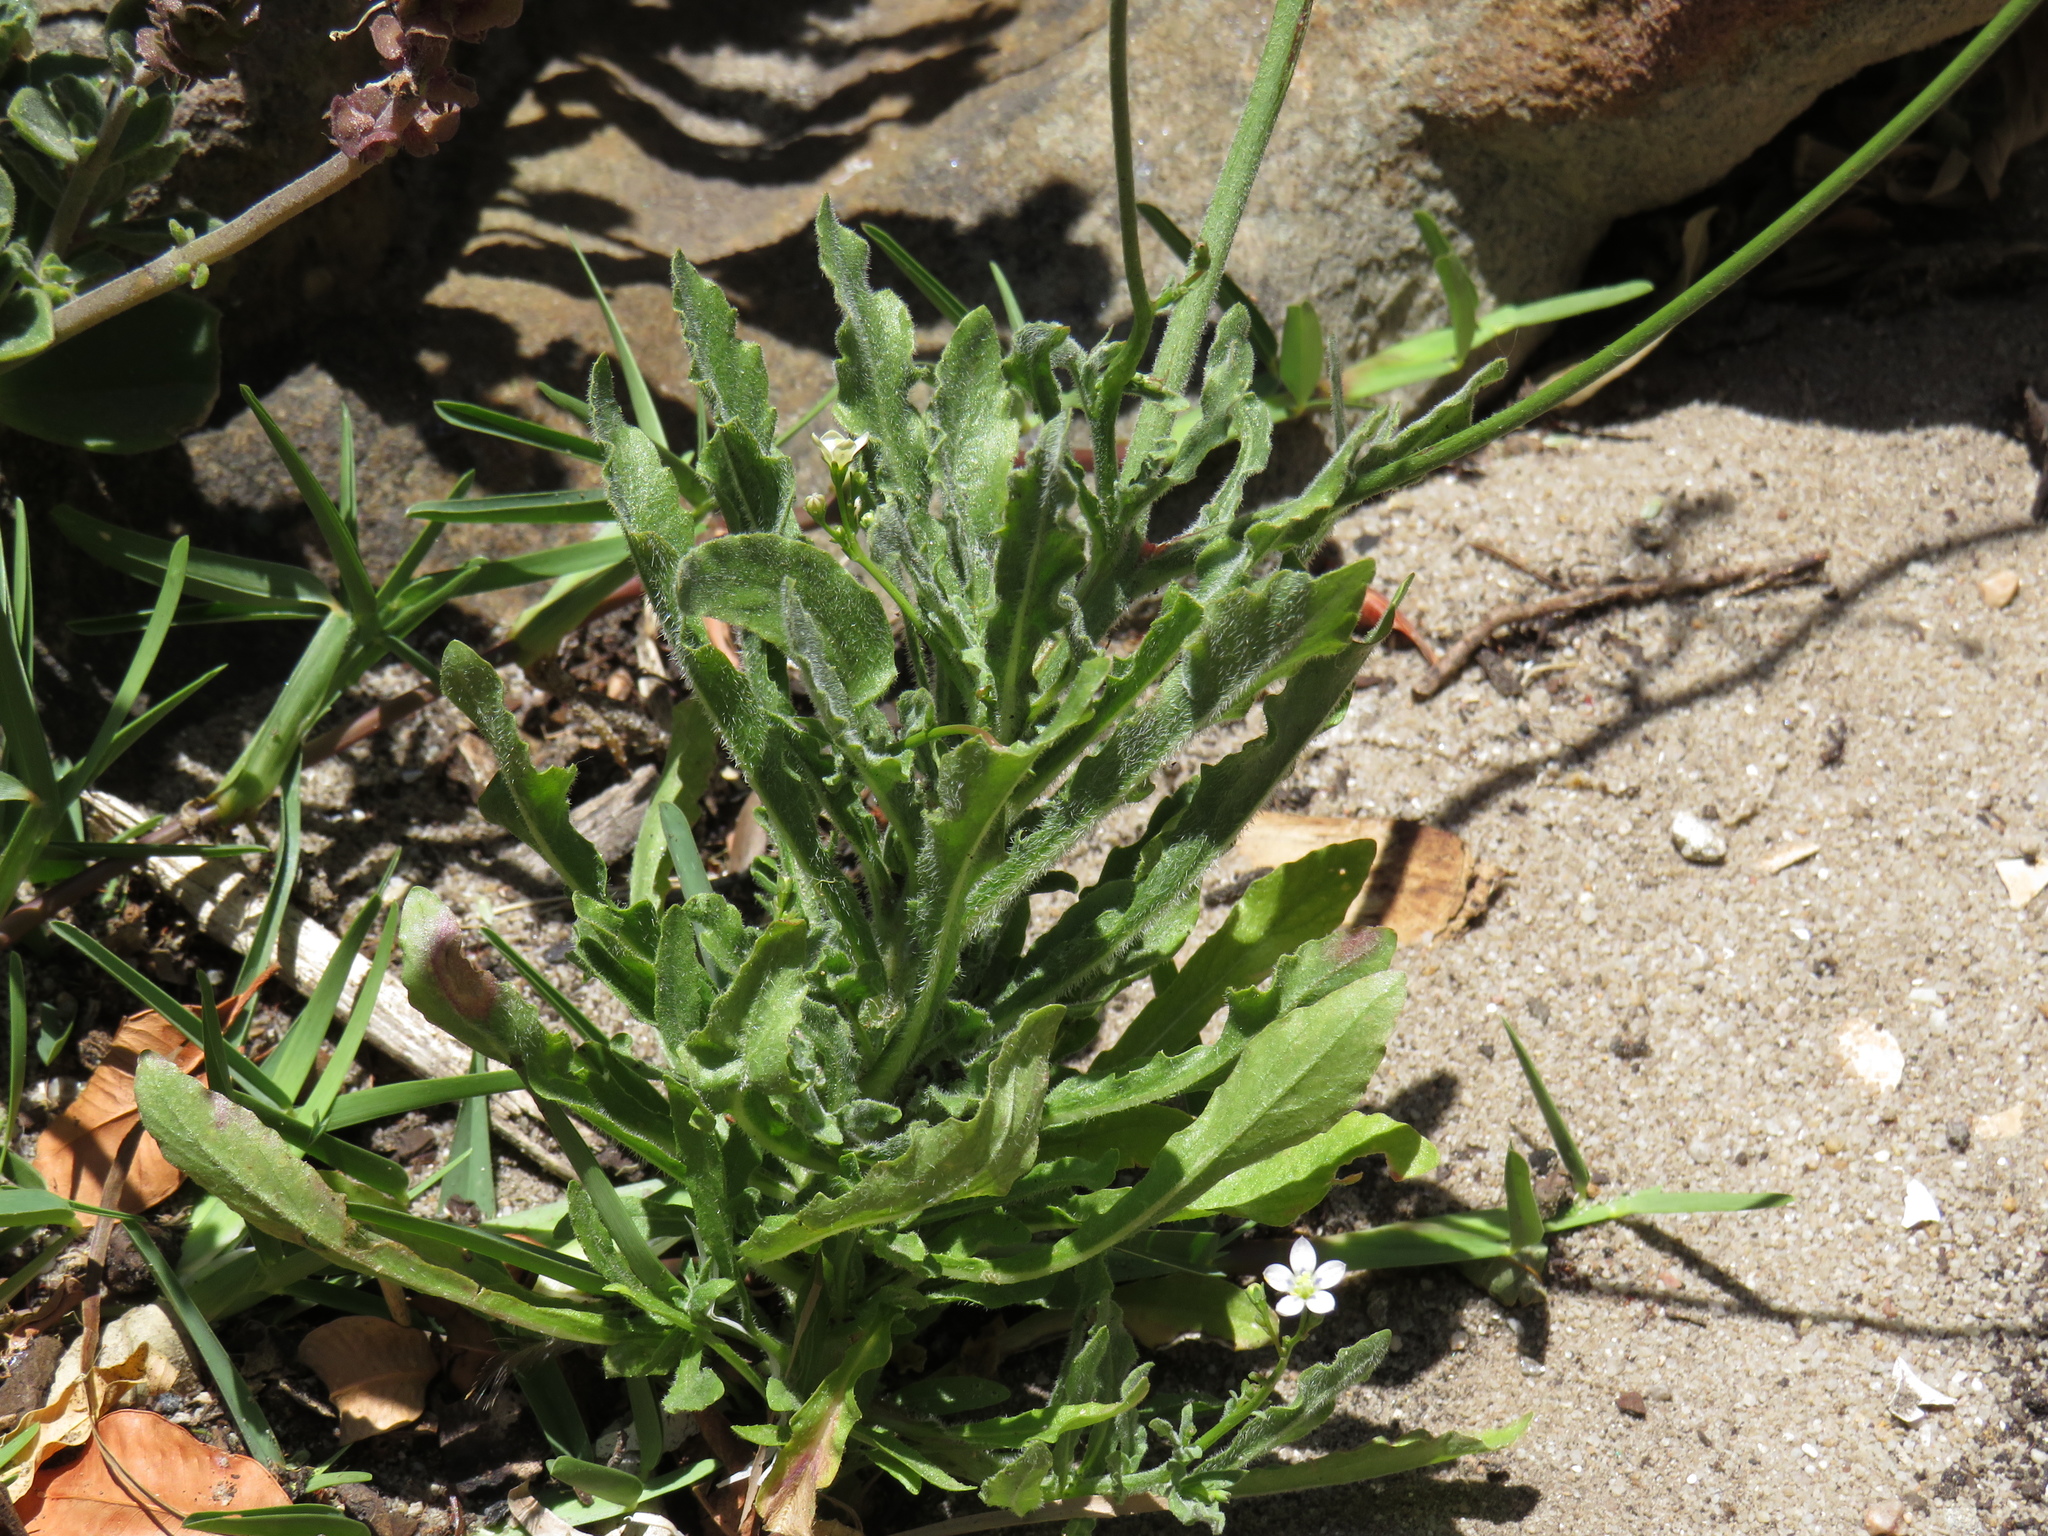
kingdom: Plantae
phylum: Tracheophyta
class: Magnoliopsida
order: Asterales
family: Campanulaceae
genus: Wahlenbergia
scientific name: Wahlenbergia androsacea
